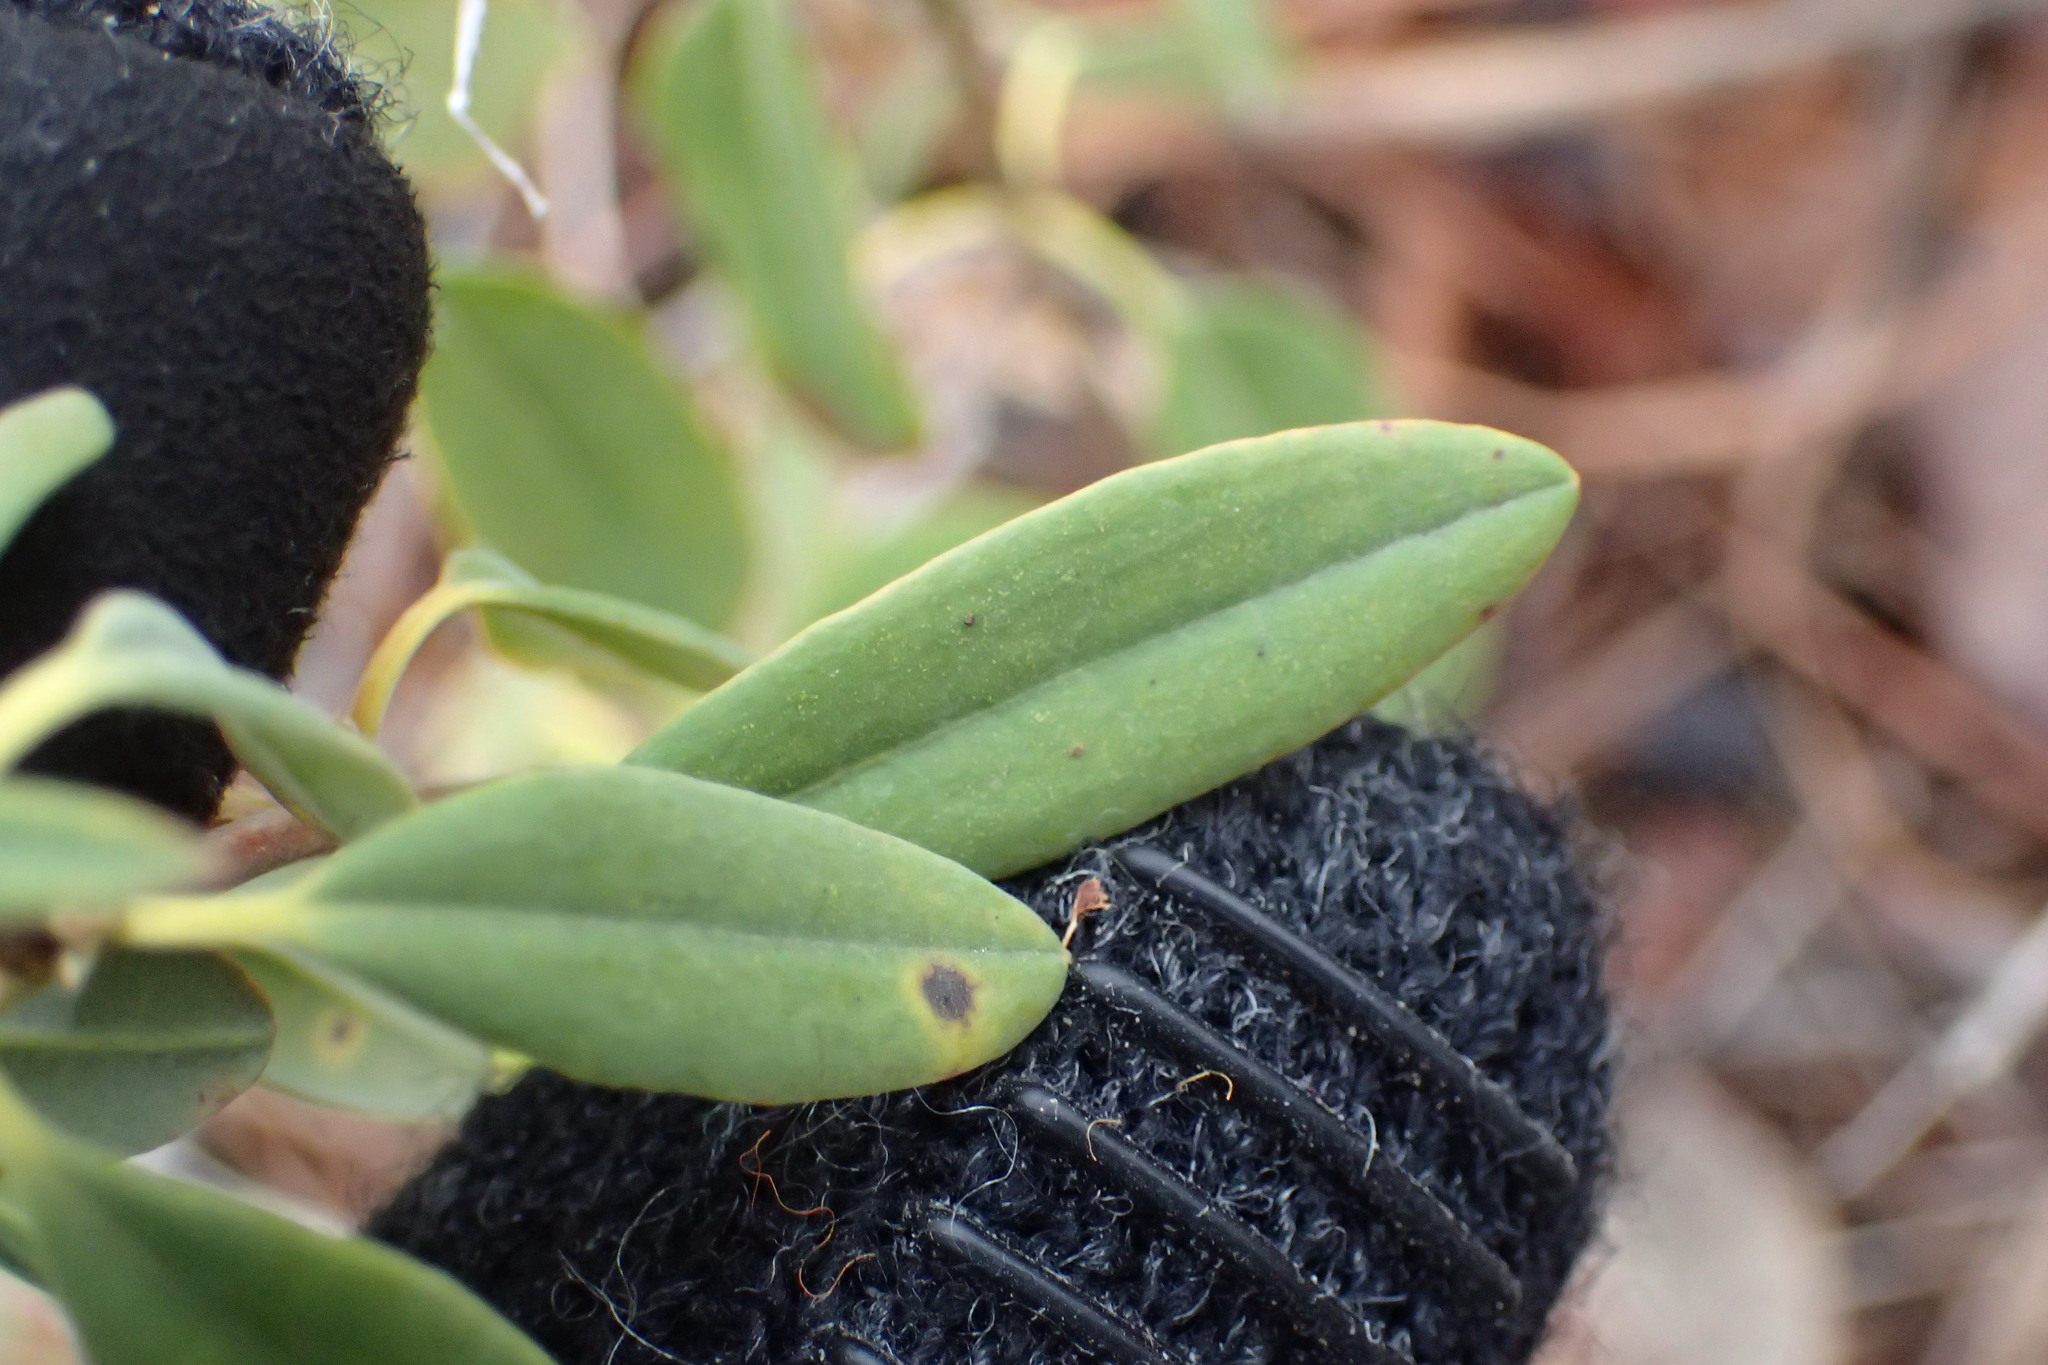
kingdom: Plantae
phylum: Tracheophyta
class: Magnoliopsida
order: Ericales
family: Ericaceae
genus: Kalmia
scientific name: Kalmia angustifolia
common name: Sheep-laurel
